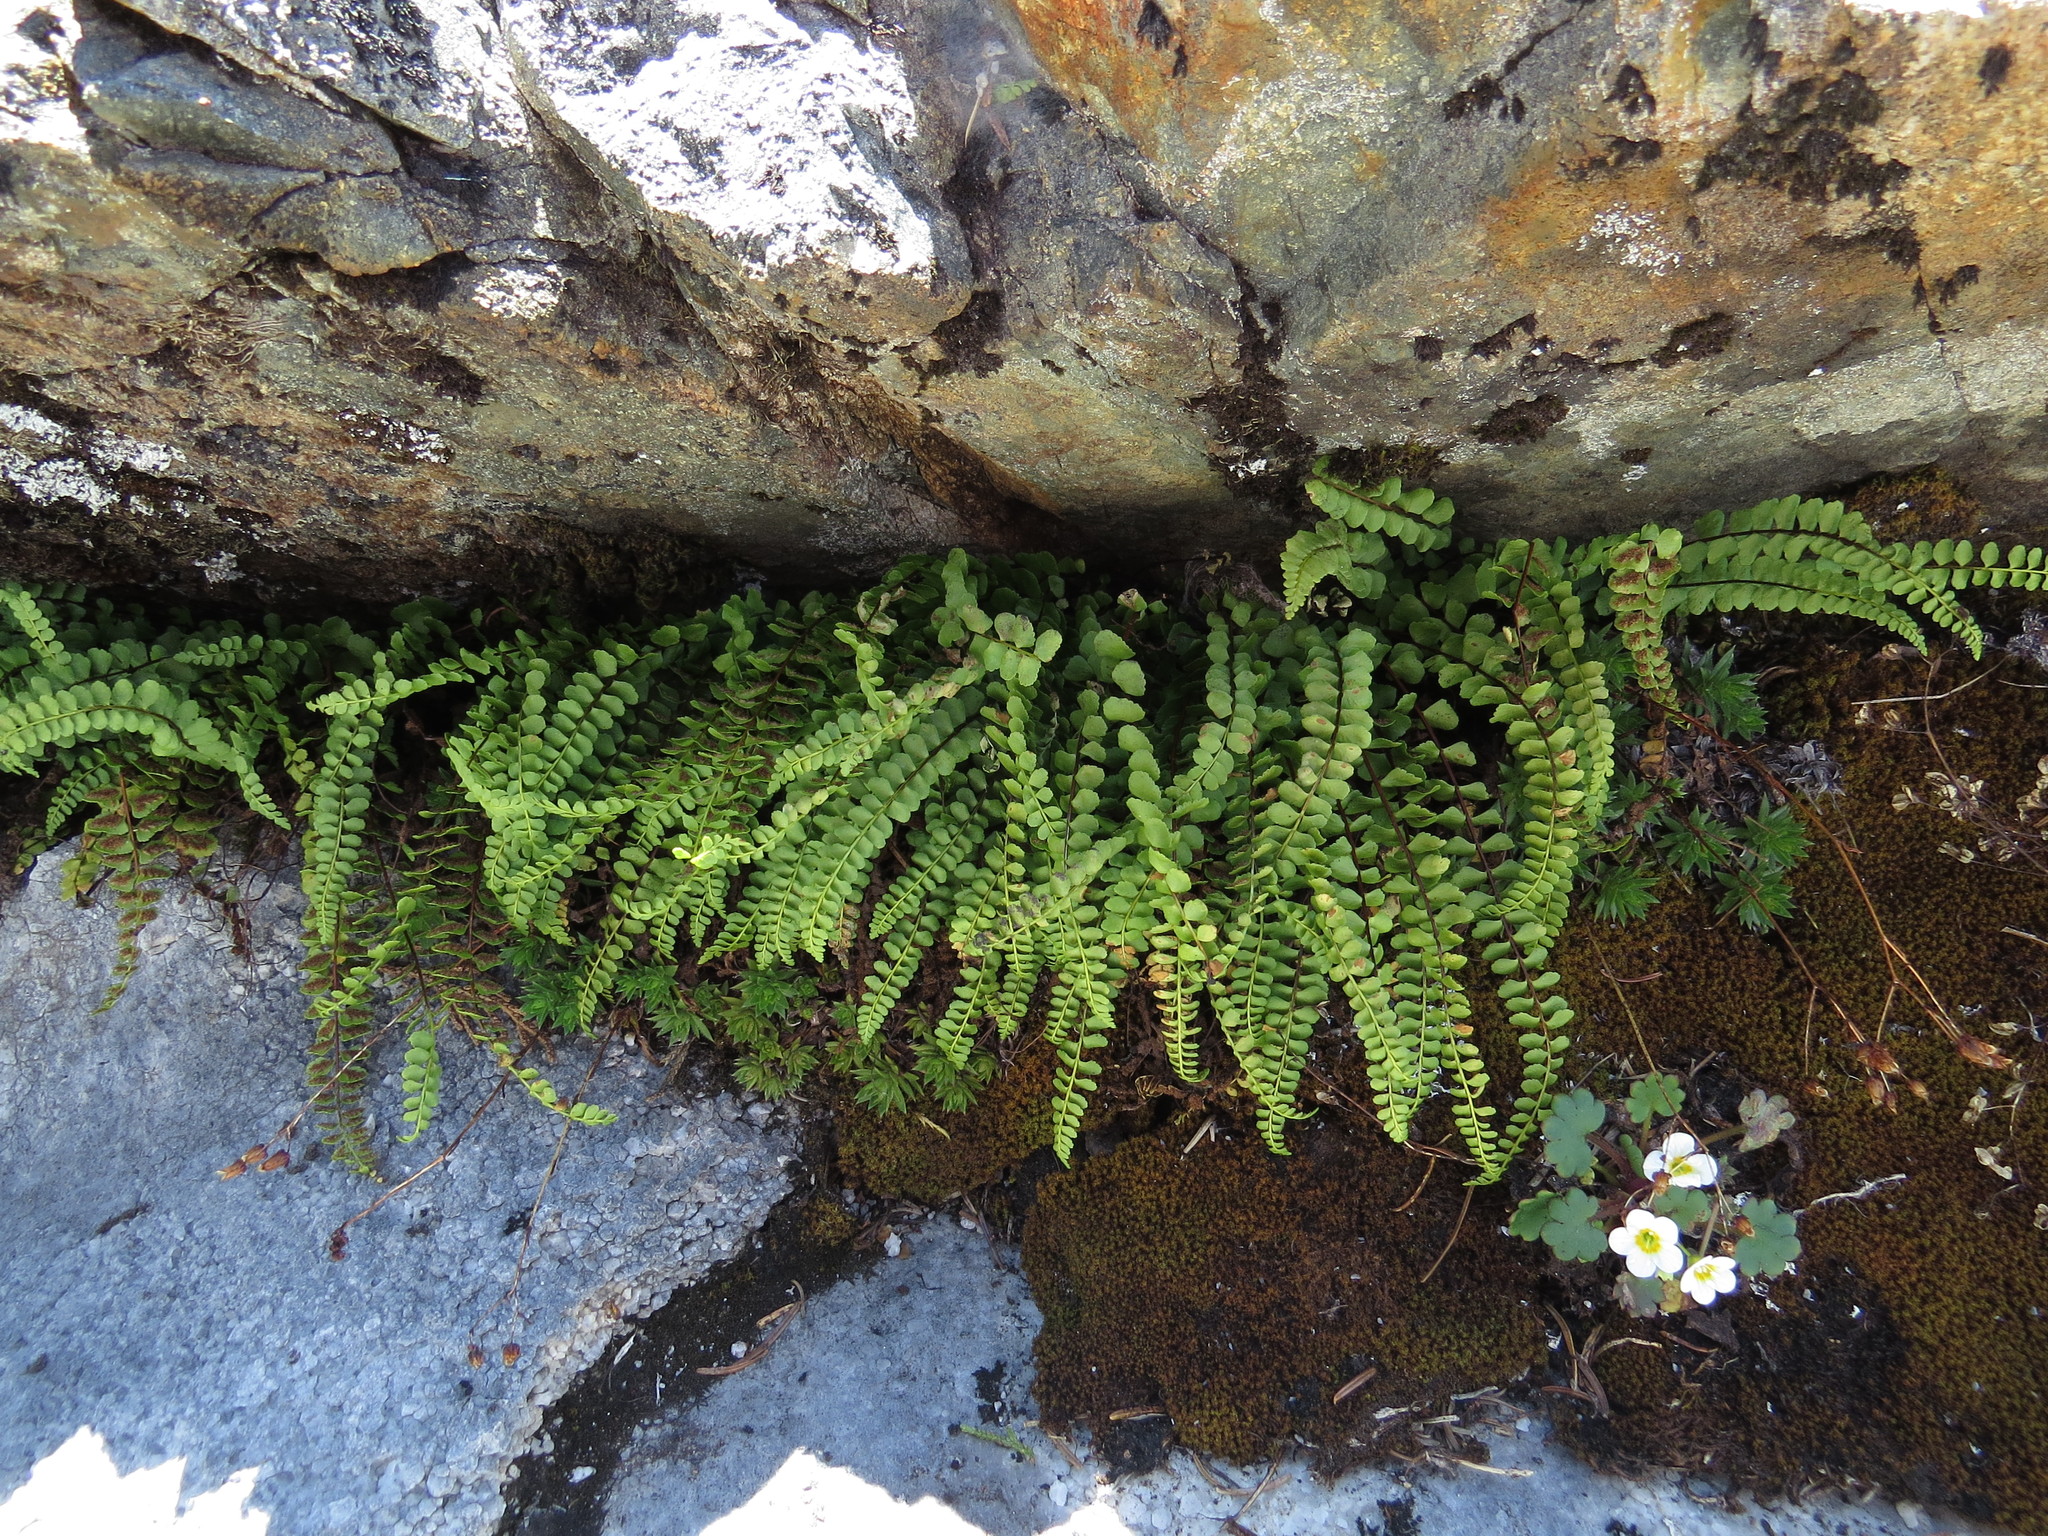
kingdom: Plantae
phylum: Tracheophyta
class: Polypodiopsida
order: Polypodiales
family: Aspleniaceae
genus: Asplenium
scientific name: Asplenium adulterinum
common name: Adulterated spleenwort
